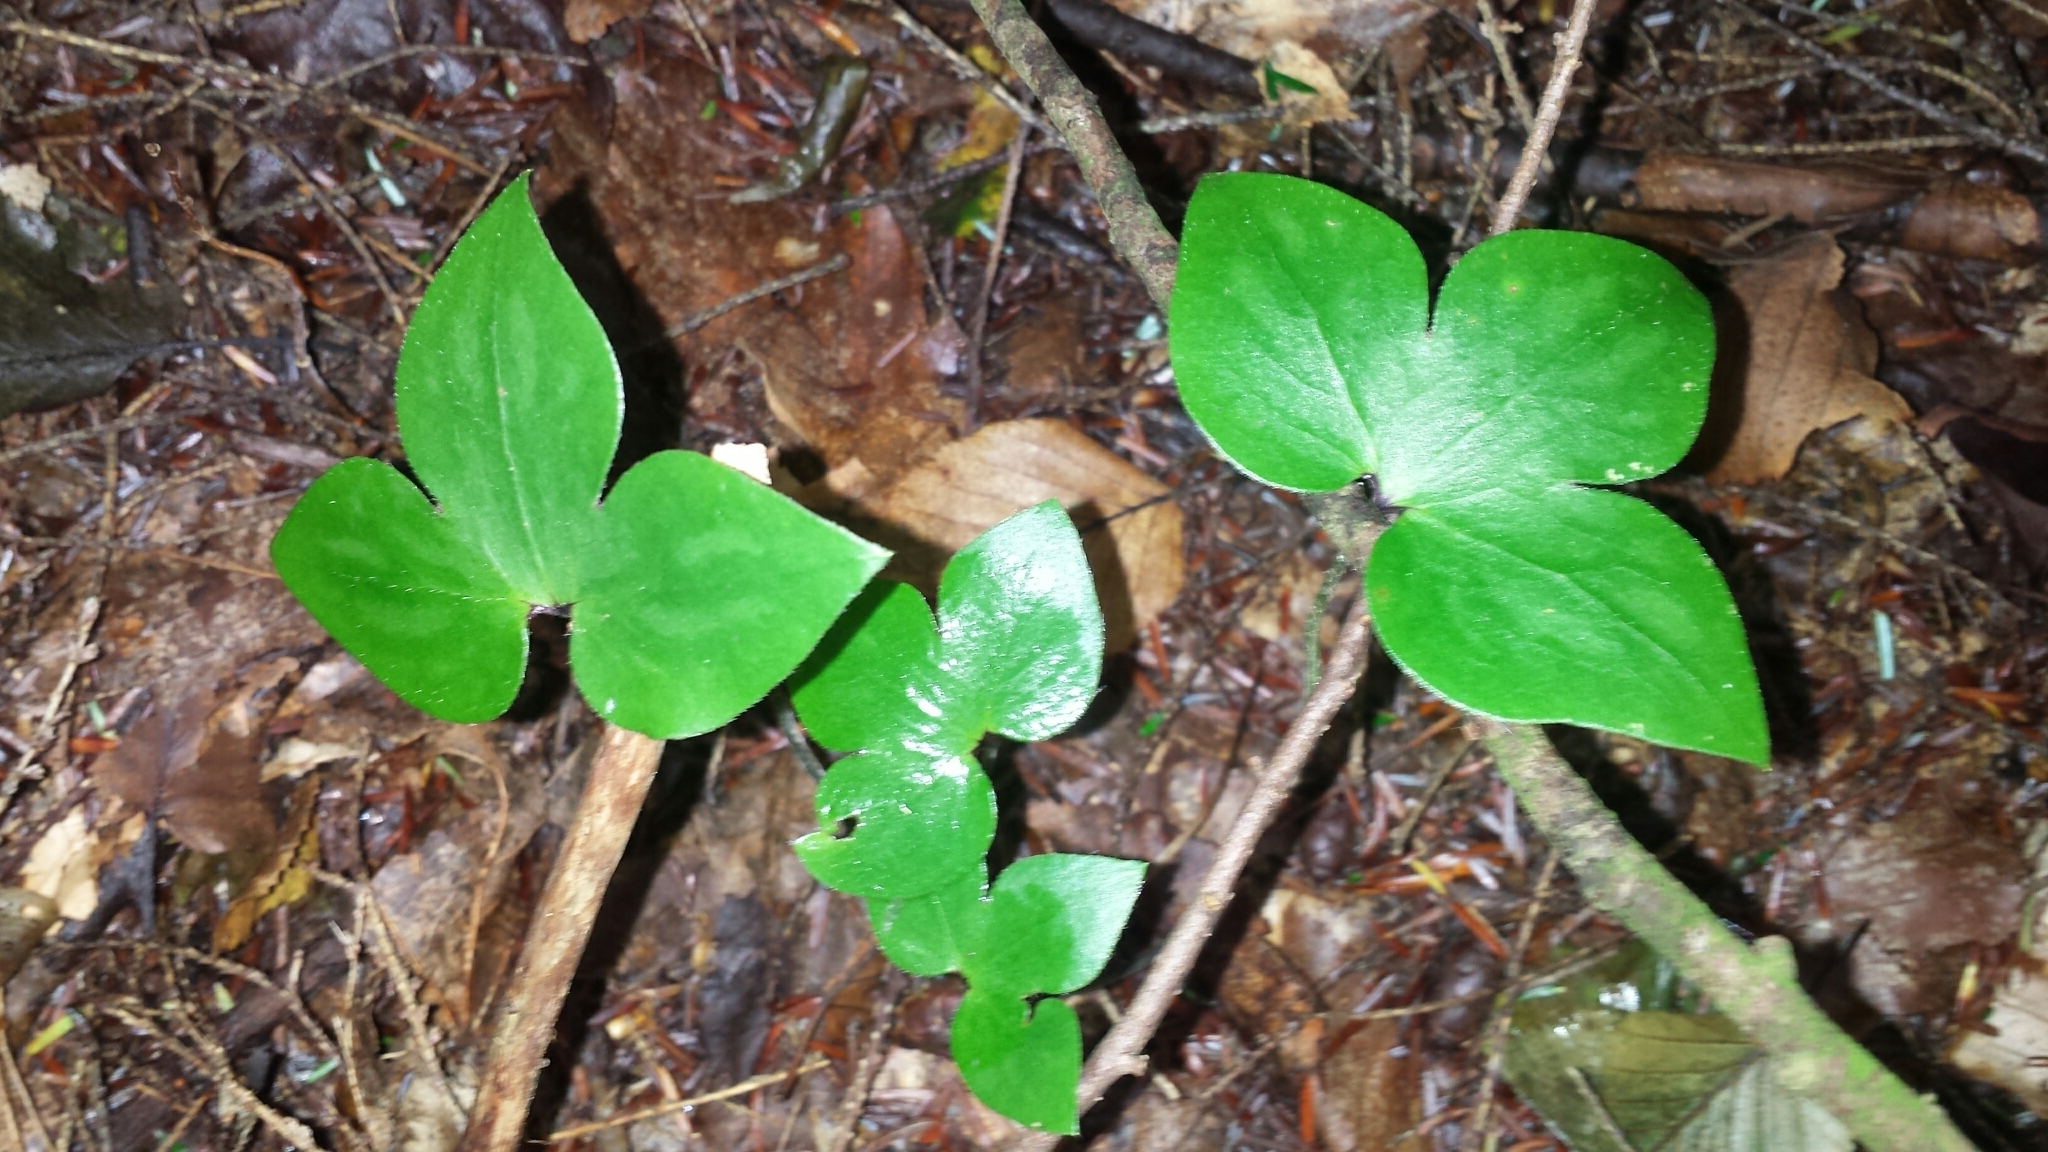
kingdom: Plantae
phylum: Tracheophyta
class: Magnoliopsida
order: Ranunculales
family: Ranunculaceae
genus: Hepatica
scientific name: Hepatica acutiloba
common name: Sharp-lobed hepatica
